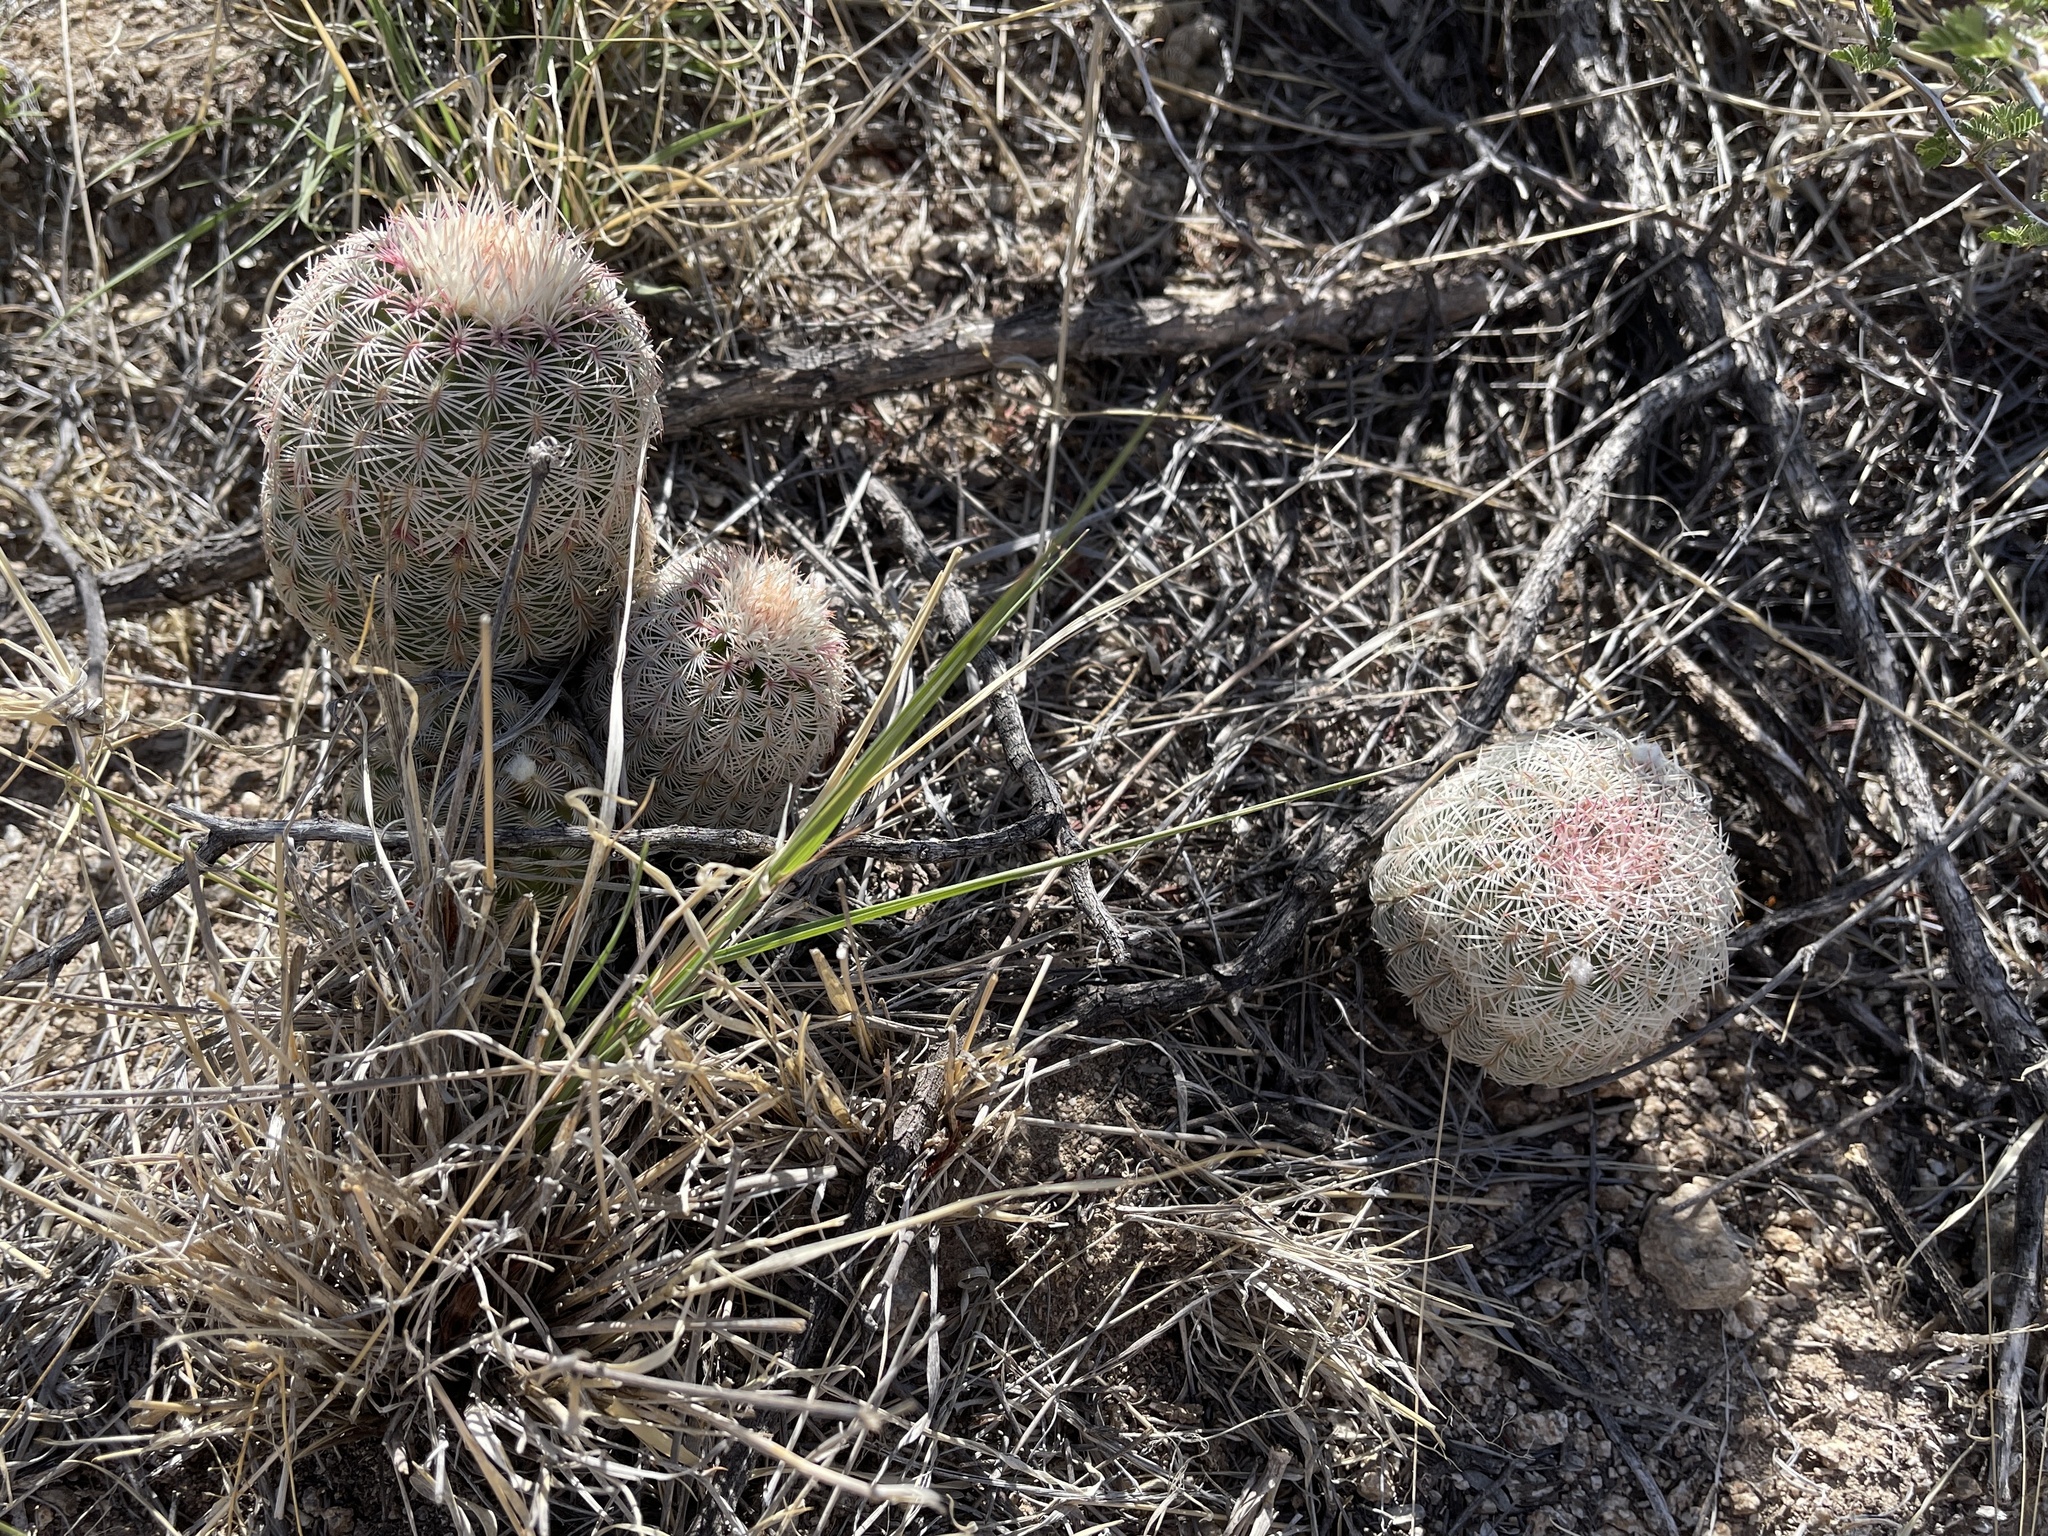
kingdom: Plantae
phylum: Tracheophyta
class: Magnoliopsida
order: Caryophyllales
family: Cactaceae
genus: Echinocereus
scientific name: Echinocereus rigidissimus
